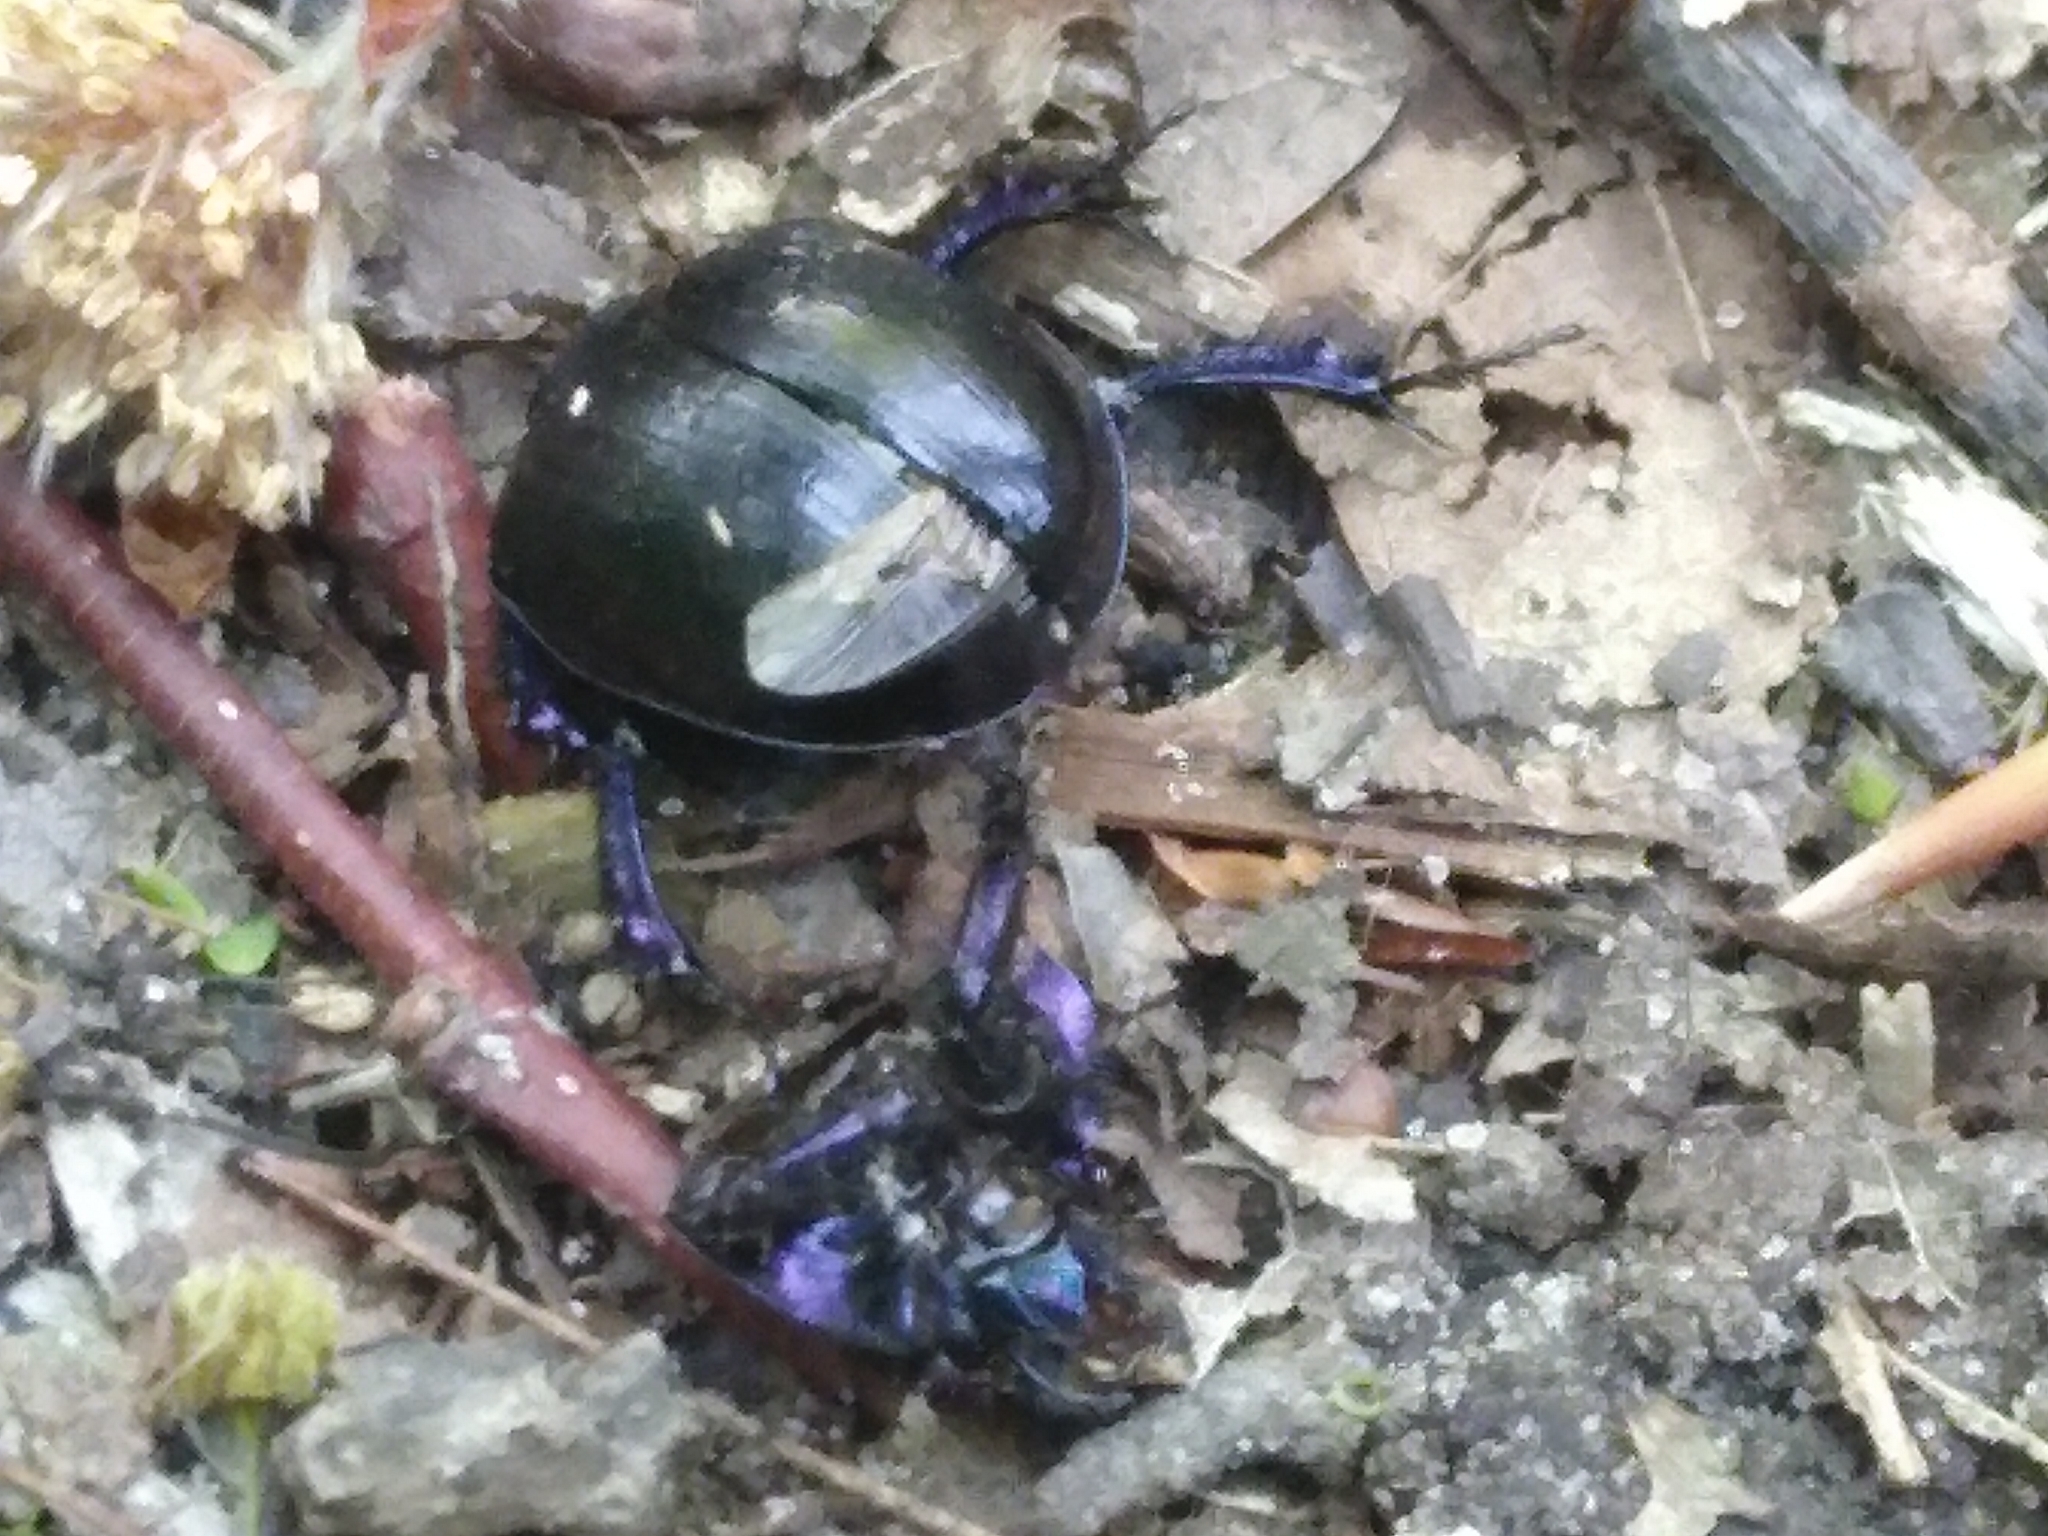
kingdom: Animalia
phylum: Arthropoda
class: Insecta
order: Coleoptera
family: Geotrupidae
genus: Anoplotrupes
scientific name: Anoplotrupes stercorosus
